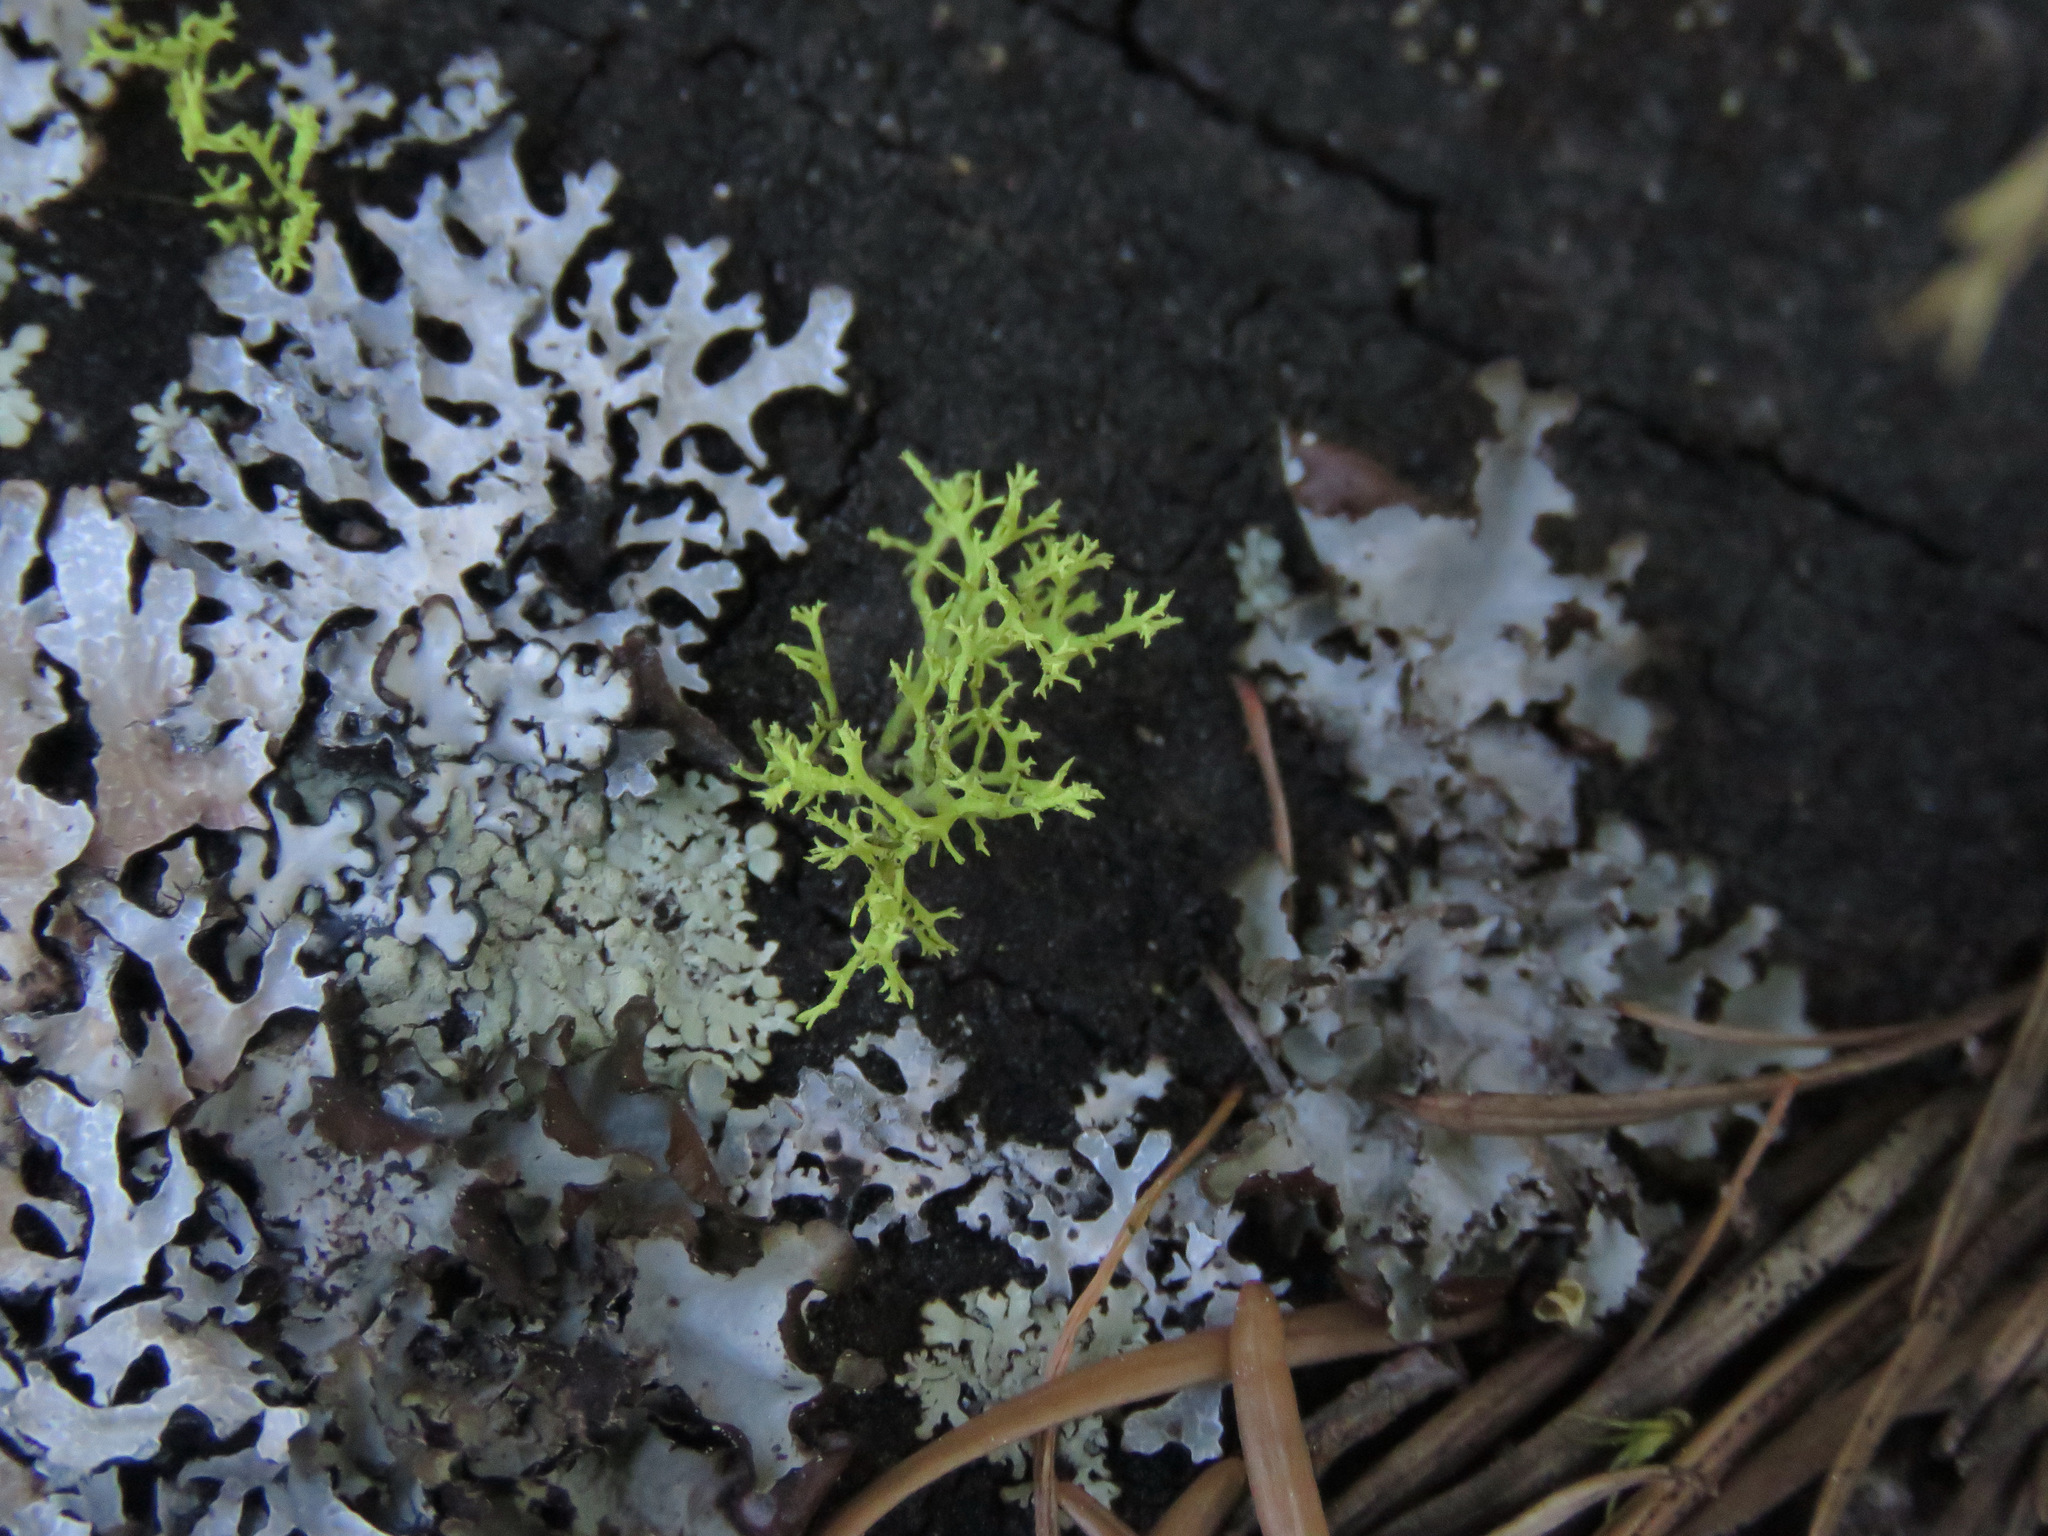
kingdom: Fungi
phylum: Ascomycota
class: Lecanoromycetes
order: Lecanorales
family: Parmeliaceae
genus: Letharia
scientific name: Letharia vulpina
